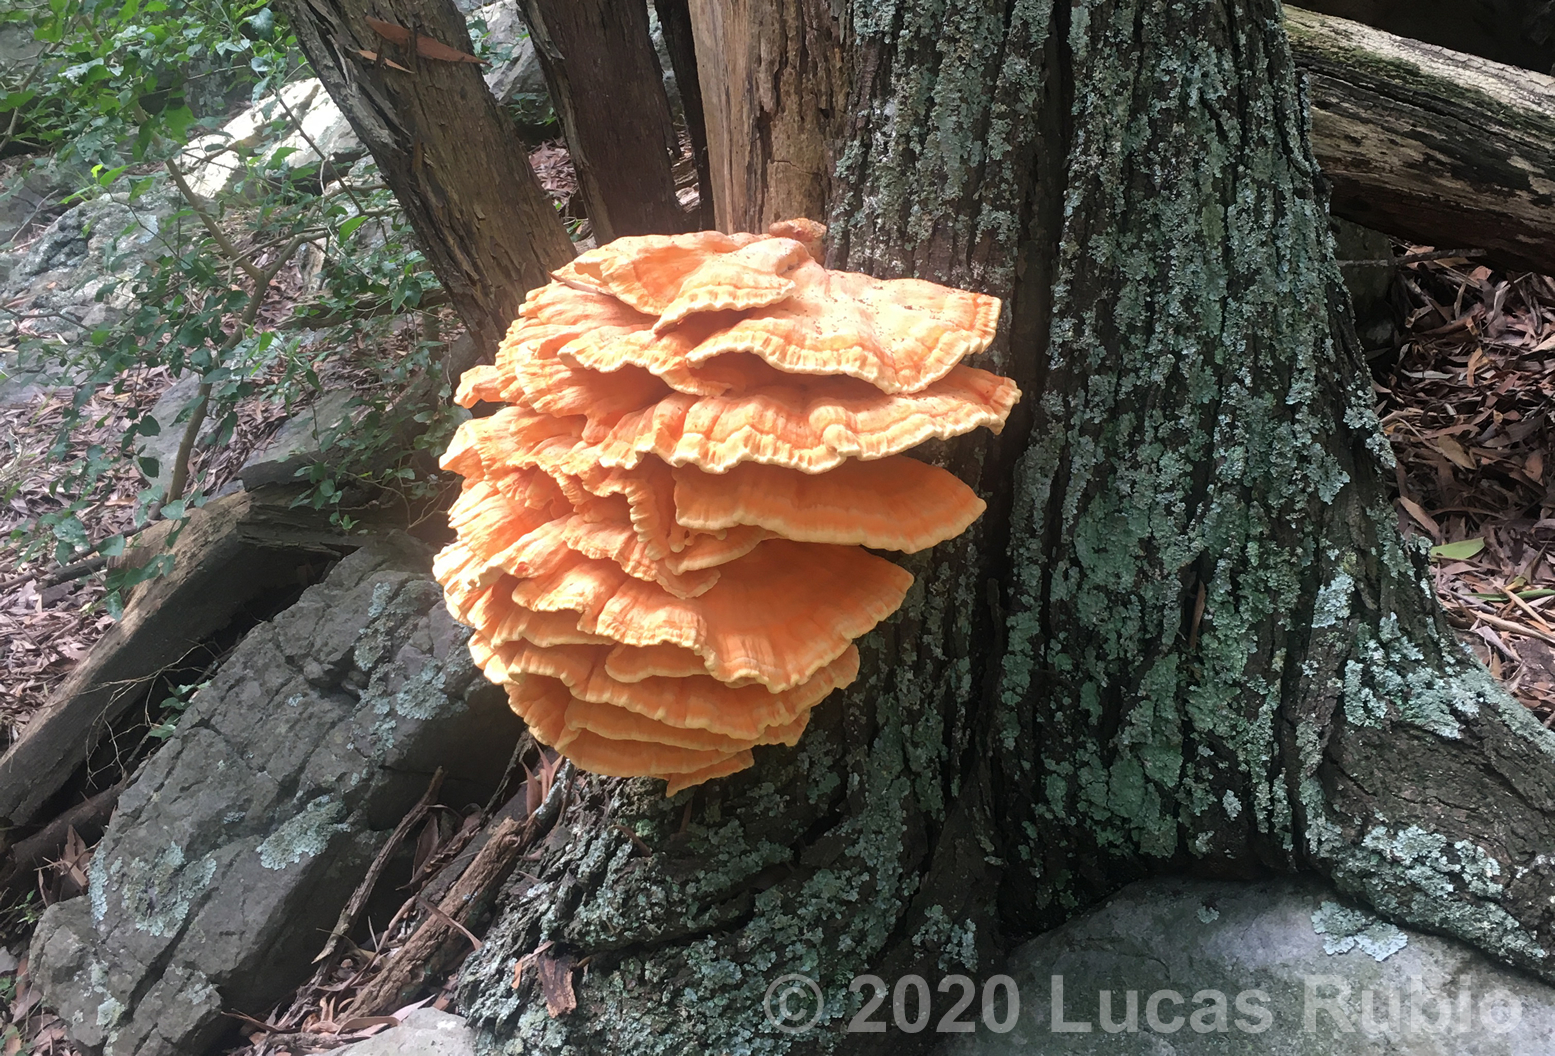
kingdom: Fungi
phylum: Basidiomycota
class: Agaricomycetes
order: Polyporales
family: Laetiporaceae
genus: Laetiporus
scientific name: Laetiporus sulphureus
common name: Chicken of the woods
